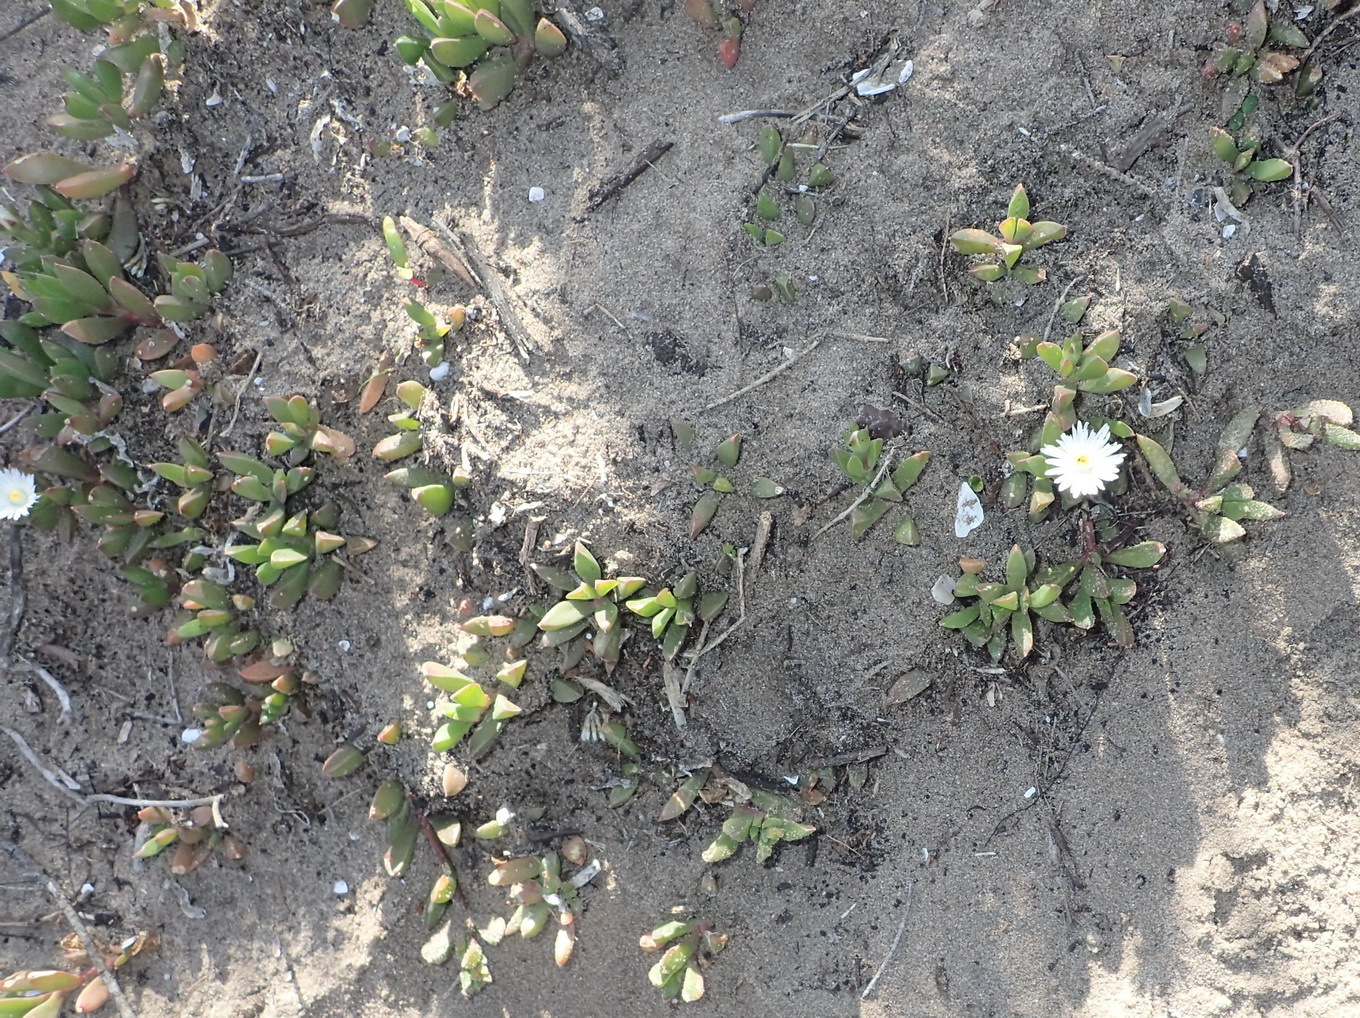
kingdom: Plantae
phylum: Tracheophyta
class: Magnoliopsida
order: Caryophyllales
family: Aizoaceae
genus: Delosperma
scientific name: Delosperma litorale
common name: Seaside delosperma
